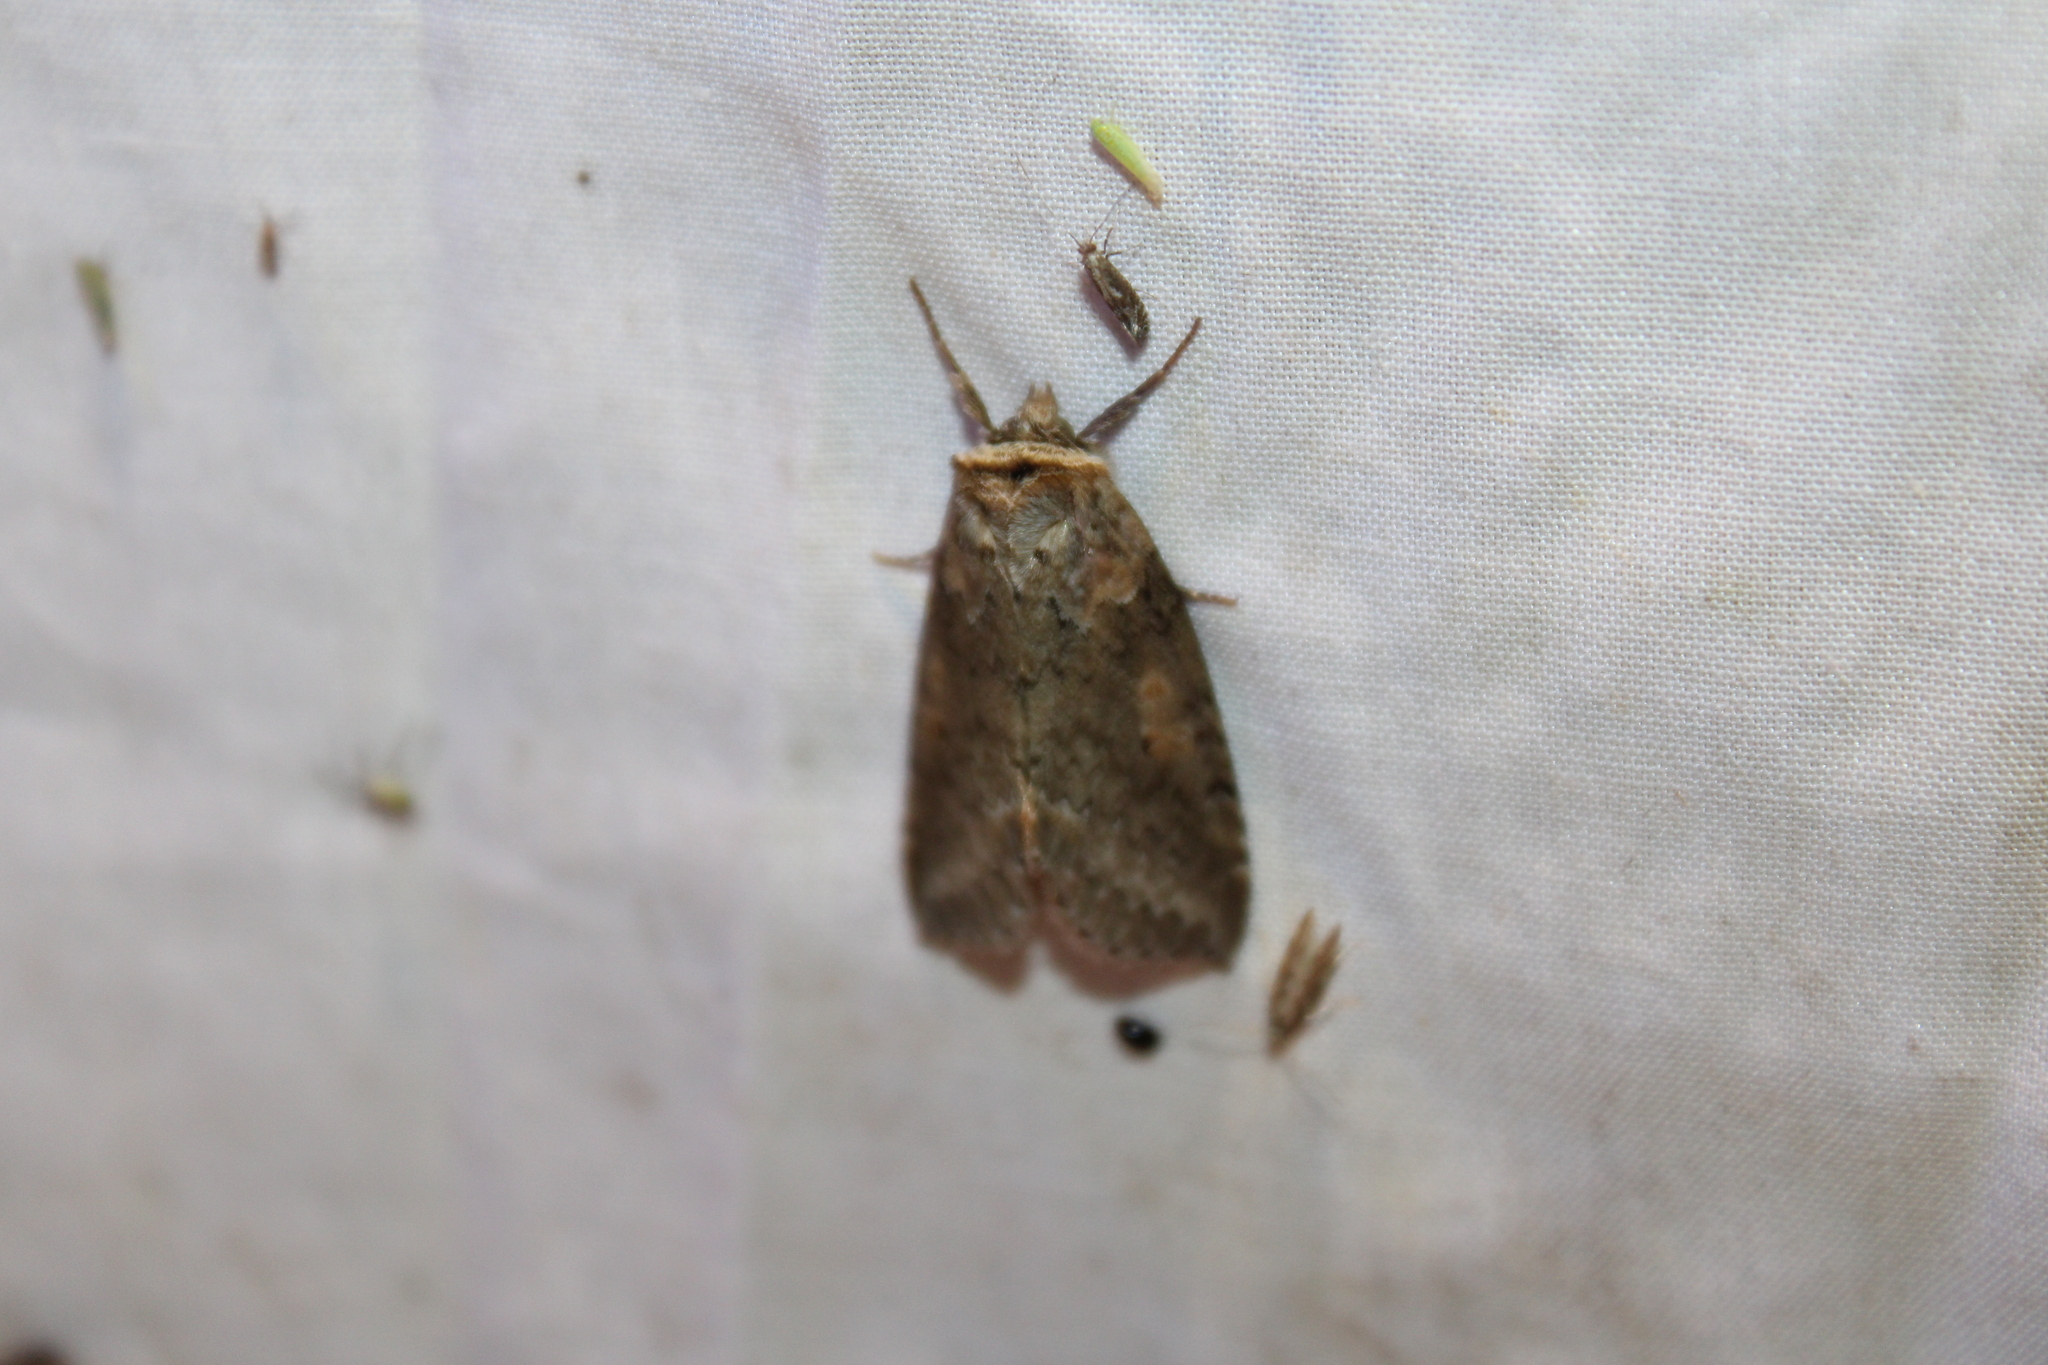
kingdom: Animalia
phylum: Arthropoda
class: Insecta
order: Lepidoptera
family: Drepanidae
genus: Pseudothyatira
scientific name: Pseudothyatira cymatophoroides
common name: Tufted thyatirid moth
